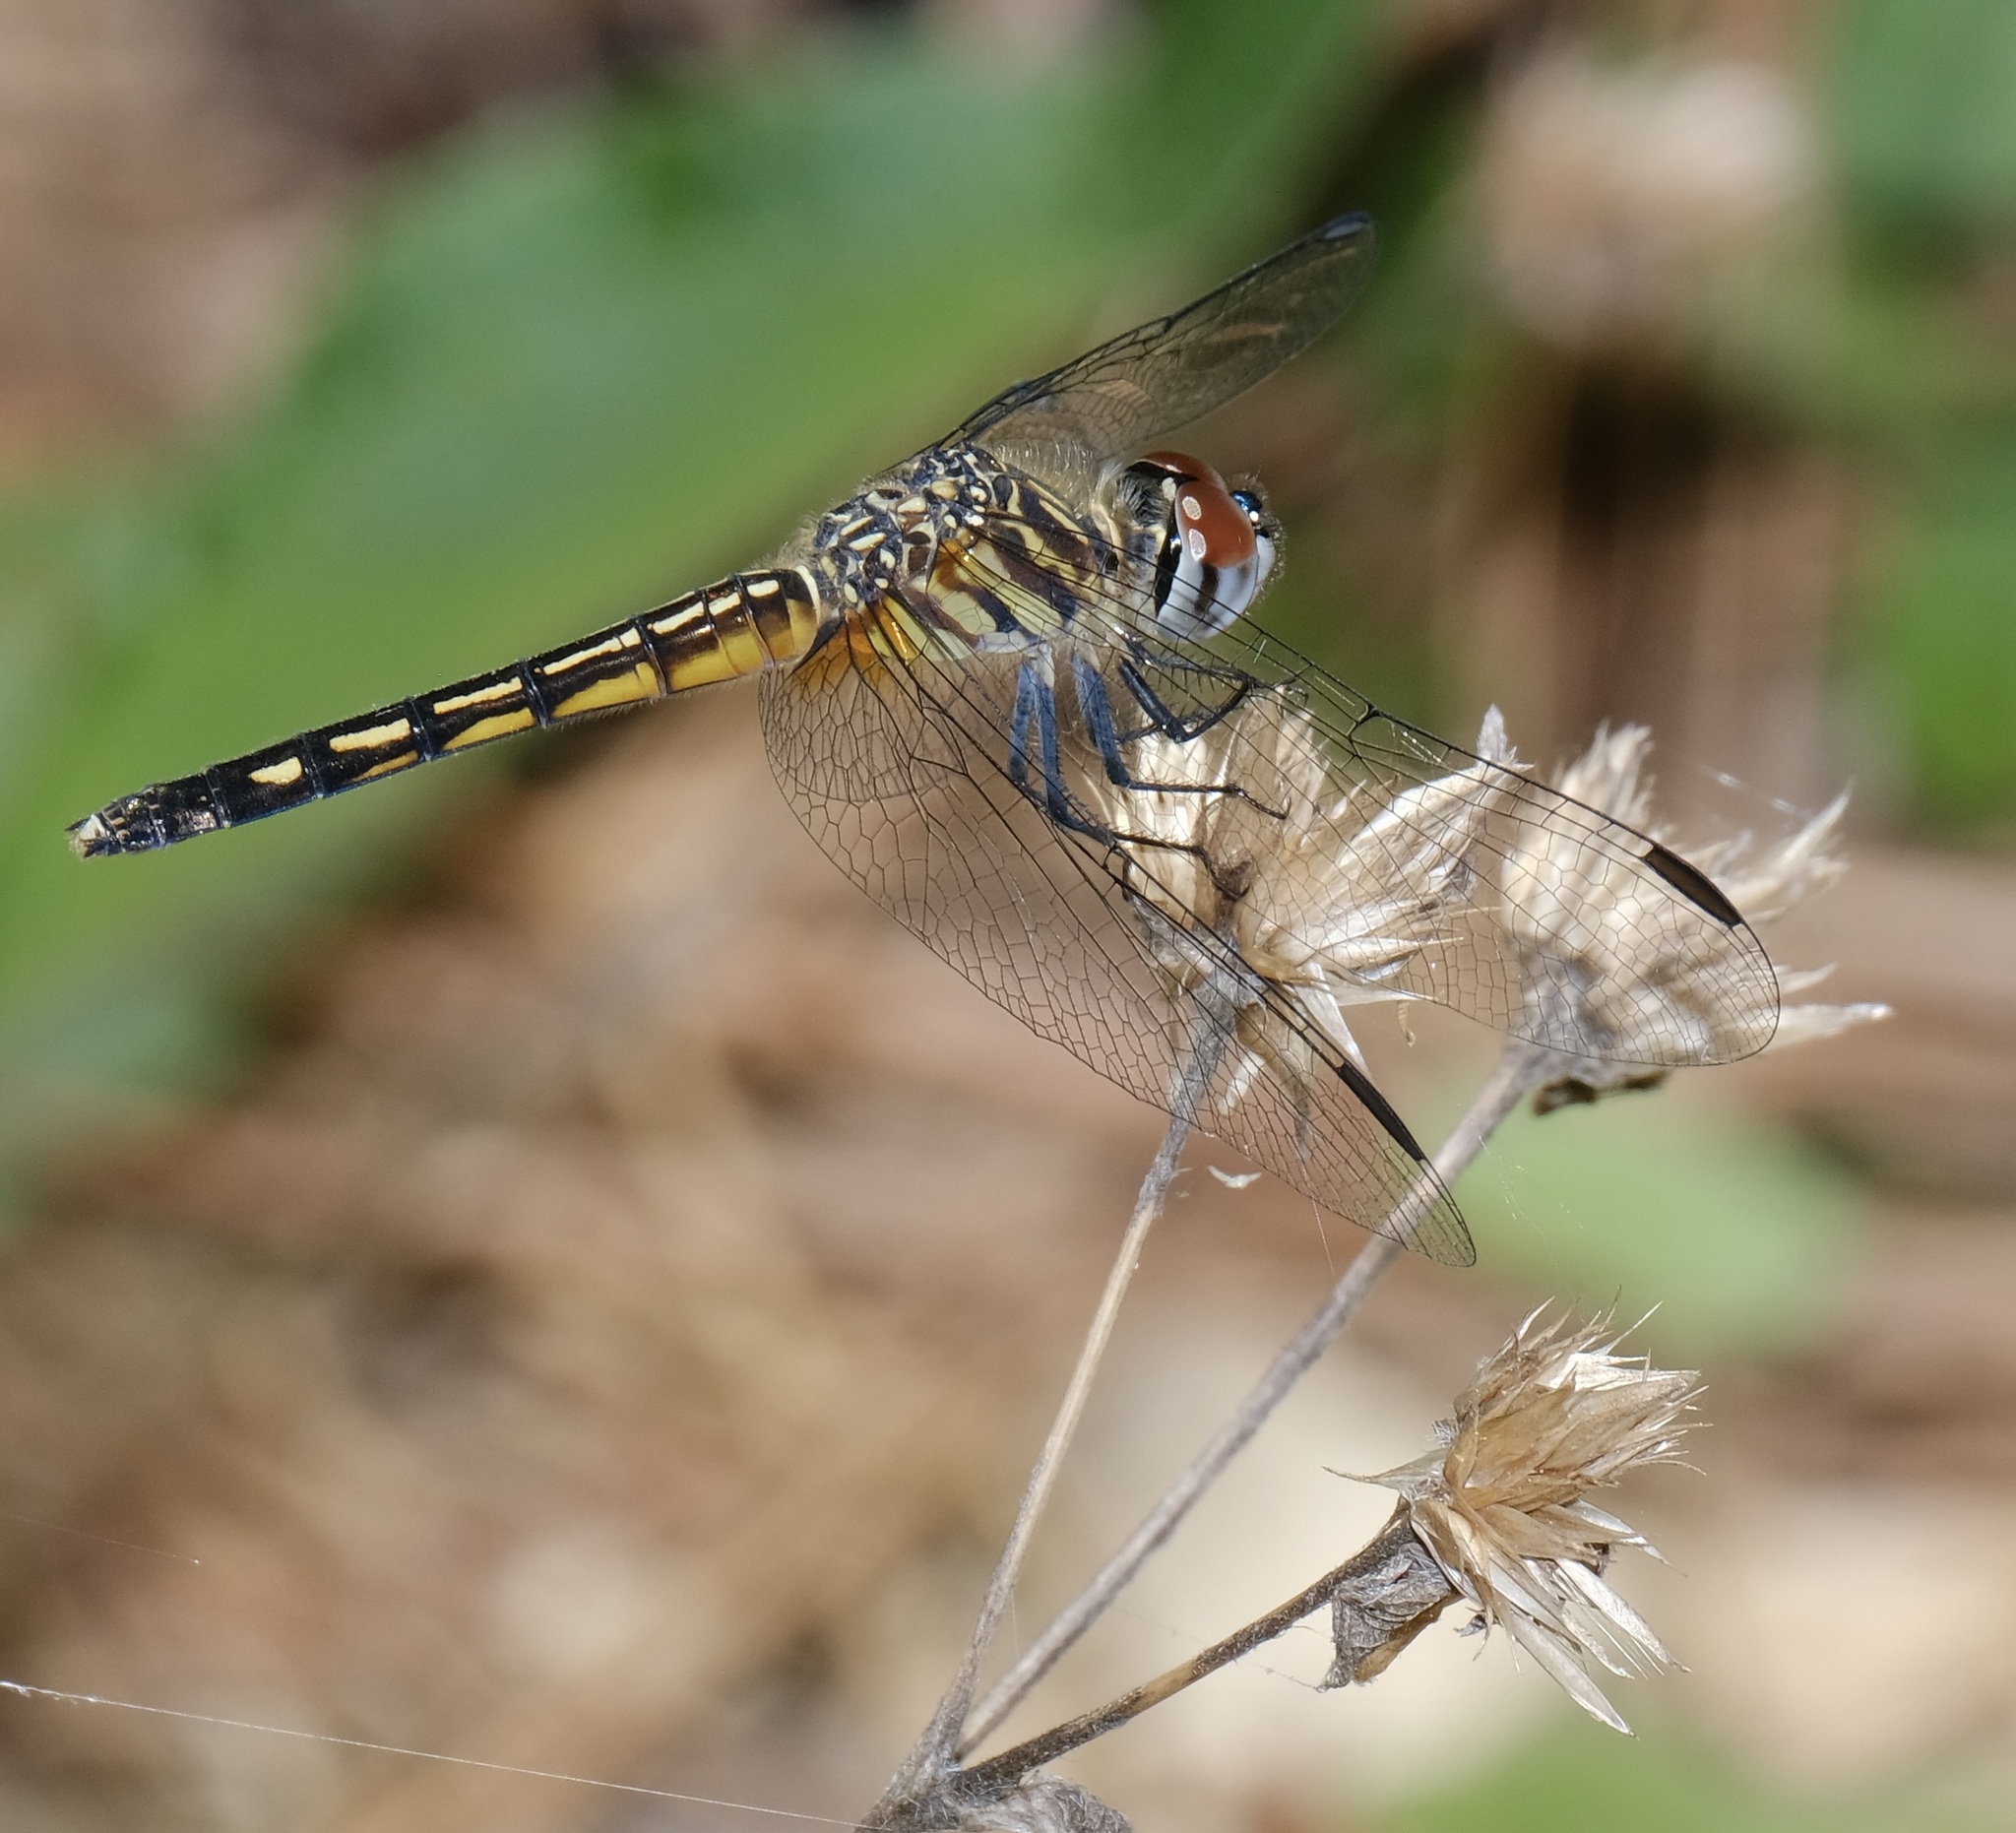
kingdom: Animalia
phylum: Arthropoda
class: Insecta
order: Odonata
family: Libellulidae
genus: Pachydiplax
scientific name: Pachydiplax longipennis
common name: Blue dasher
